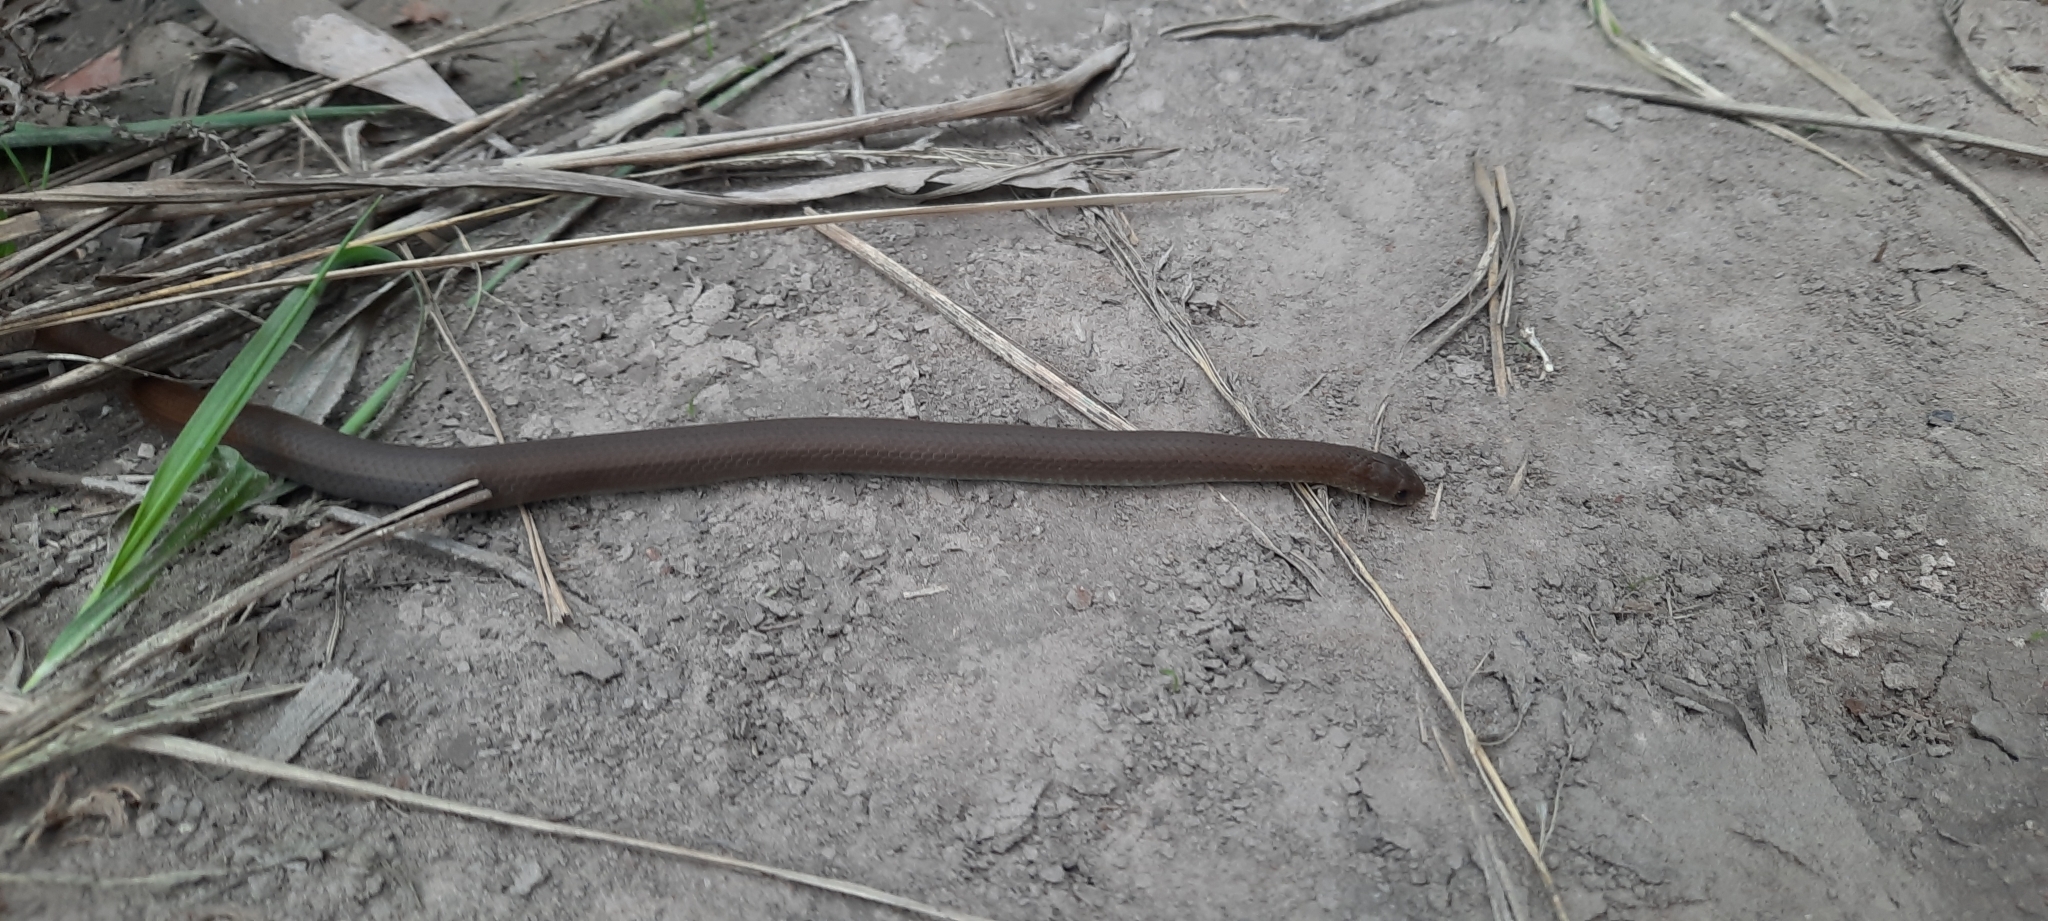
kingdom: Animalia
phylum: Chordata
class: Squamata
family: Pseudoxyrhophiidae
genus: Duberria
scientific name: Duberria lutrix
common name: Common slug eater
